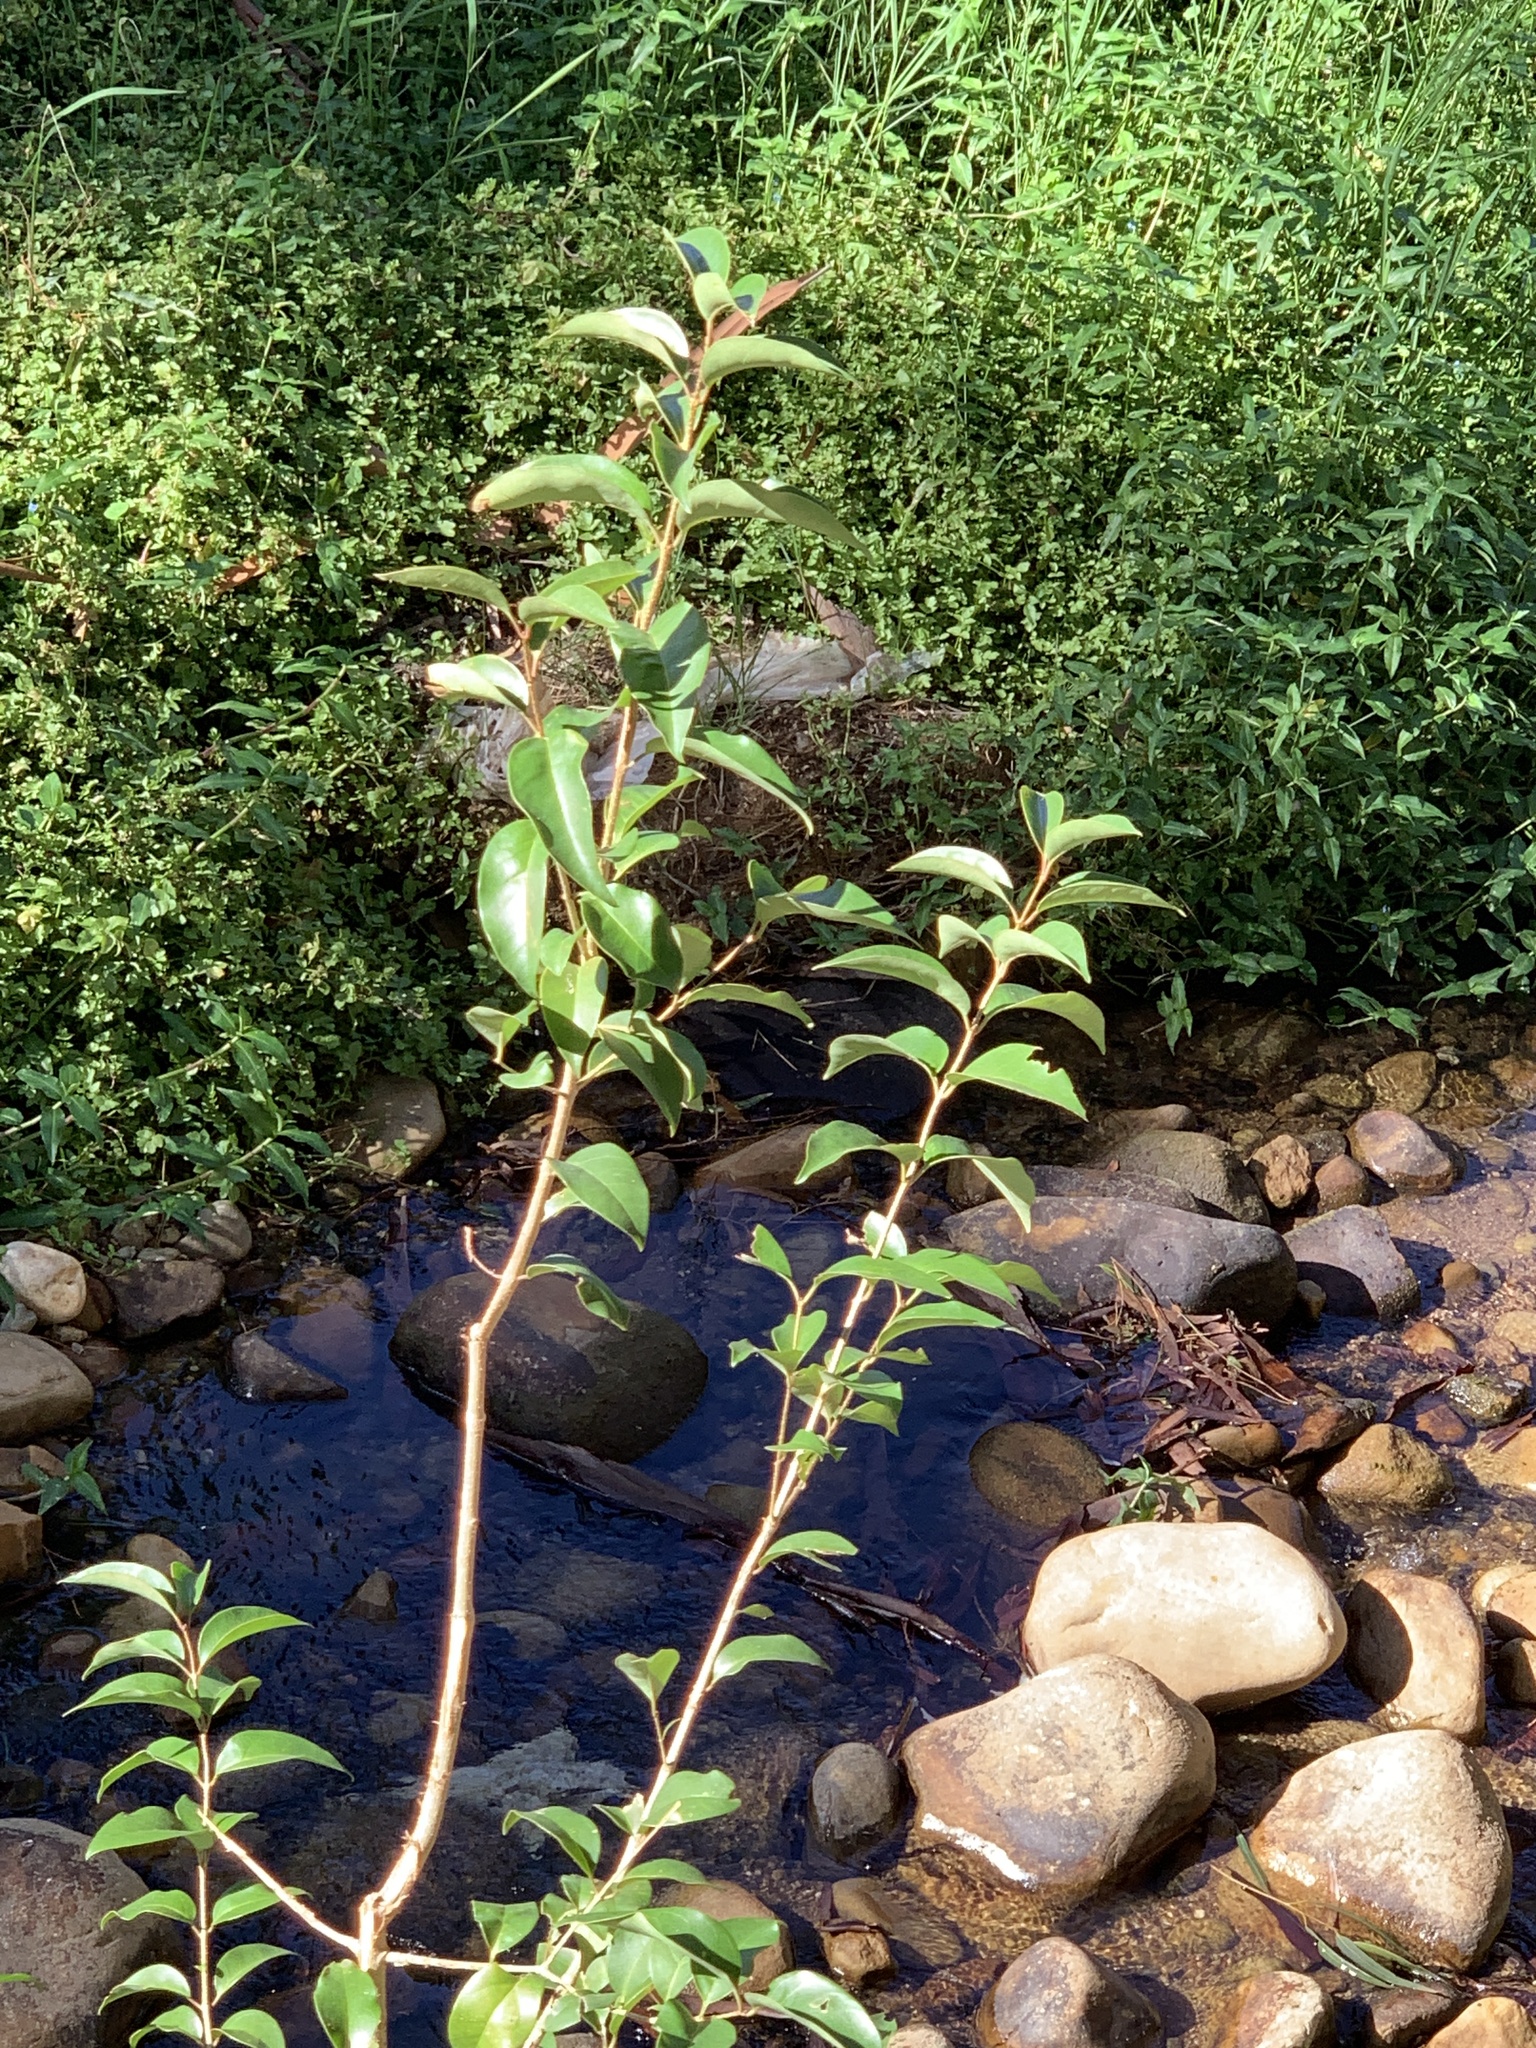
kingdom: Plantae
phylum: Tracheophyta
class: Magnoliopsida
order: Lamiales
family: Oleaceae
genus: Ligustrum
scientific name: Ligustrum lucidum
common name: Glossy privet
